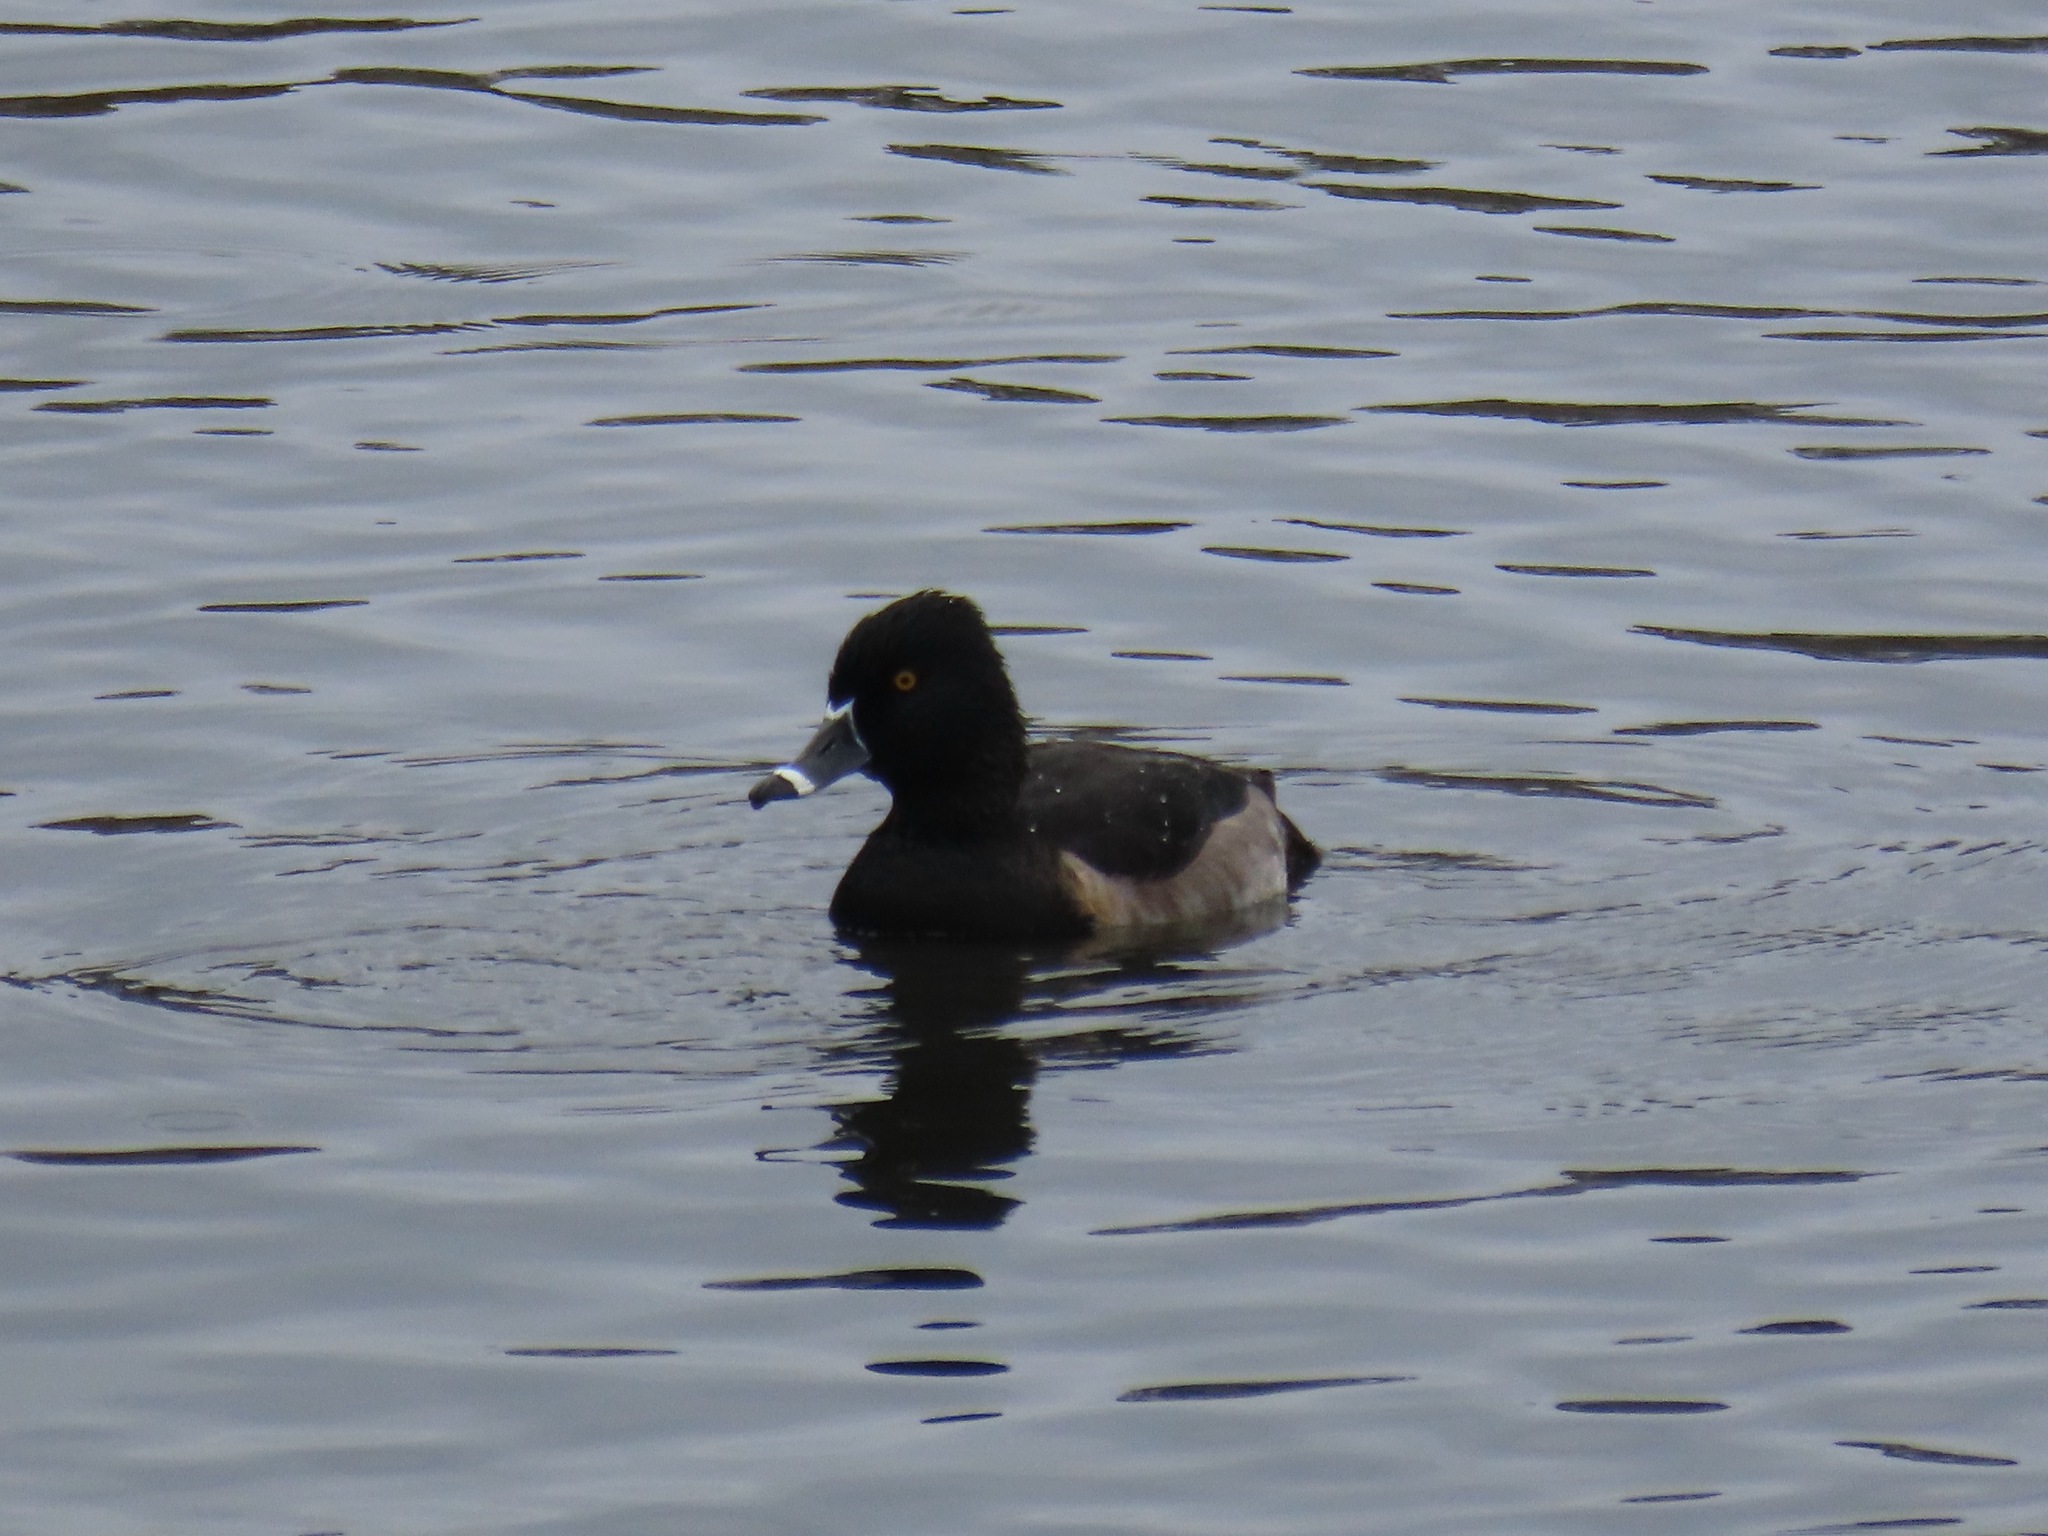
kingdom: Animalia
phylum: Chordata
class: Aves
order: Anseriformes
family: Anatidae
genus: Aythya
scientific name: Aythya collaris
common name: Ring-necked duck
